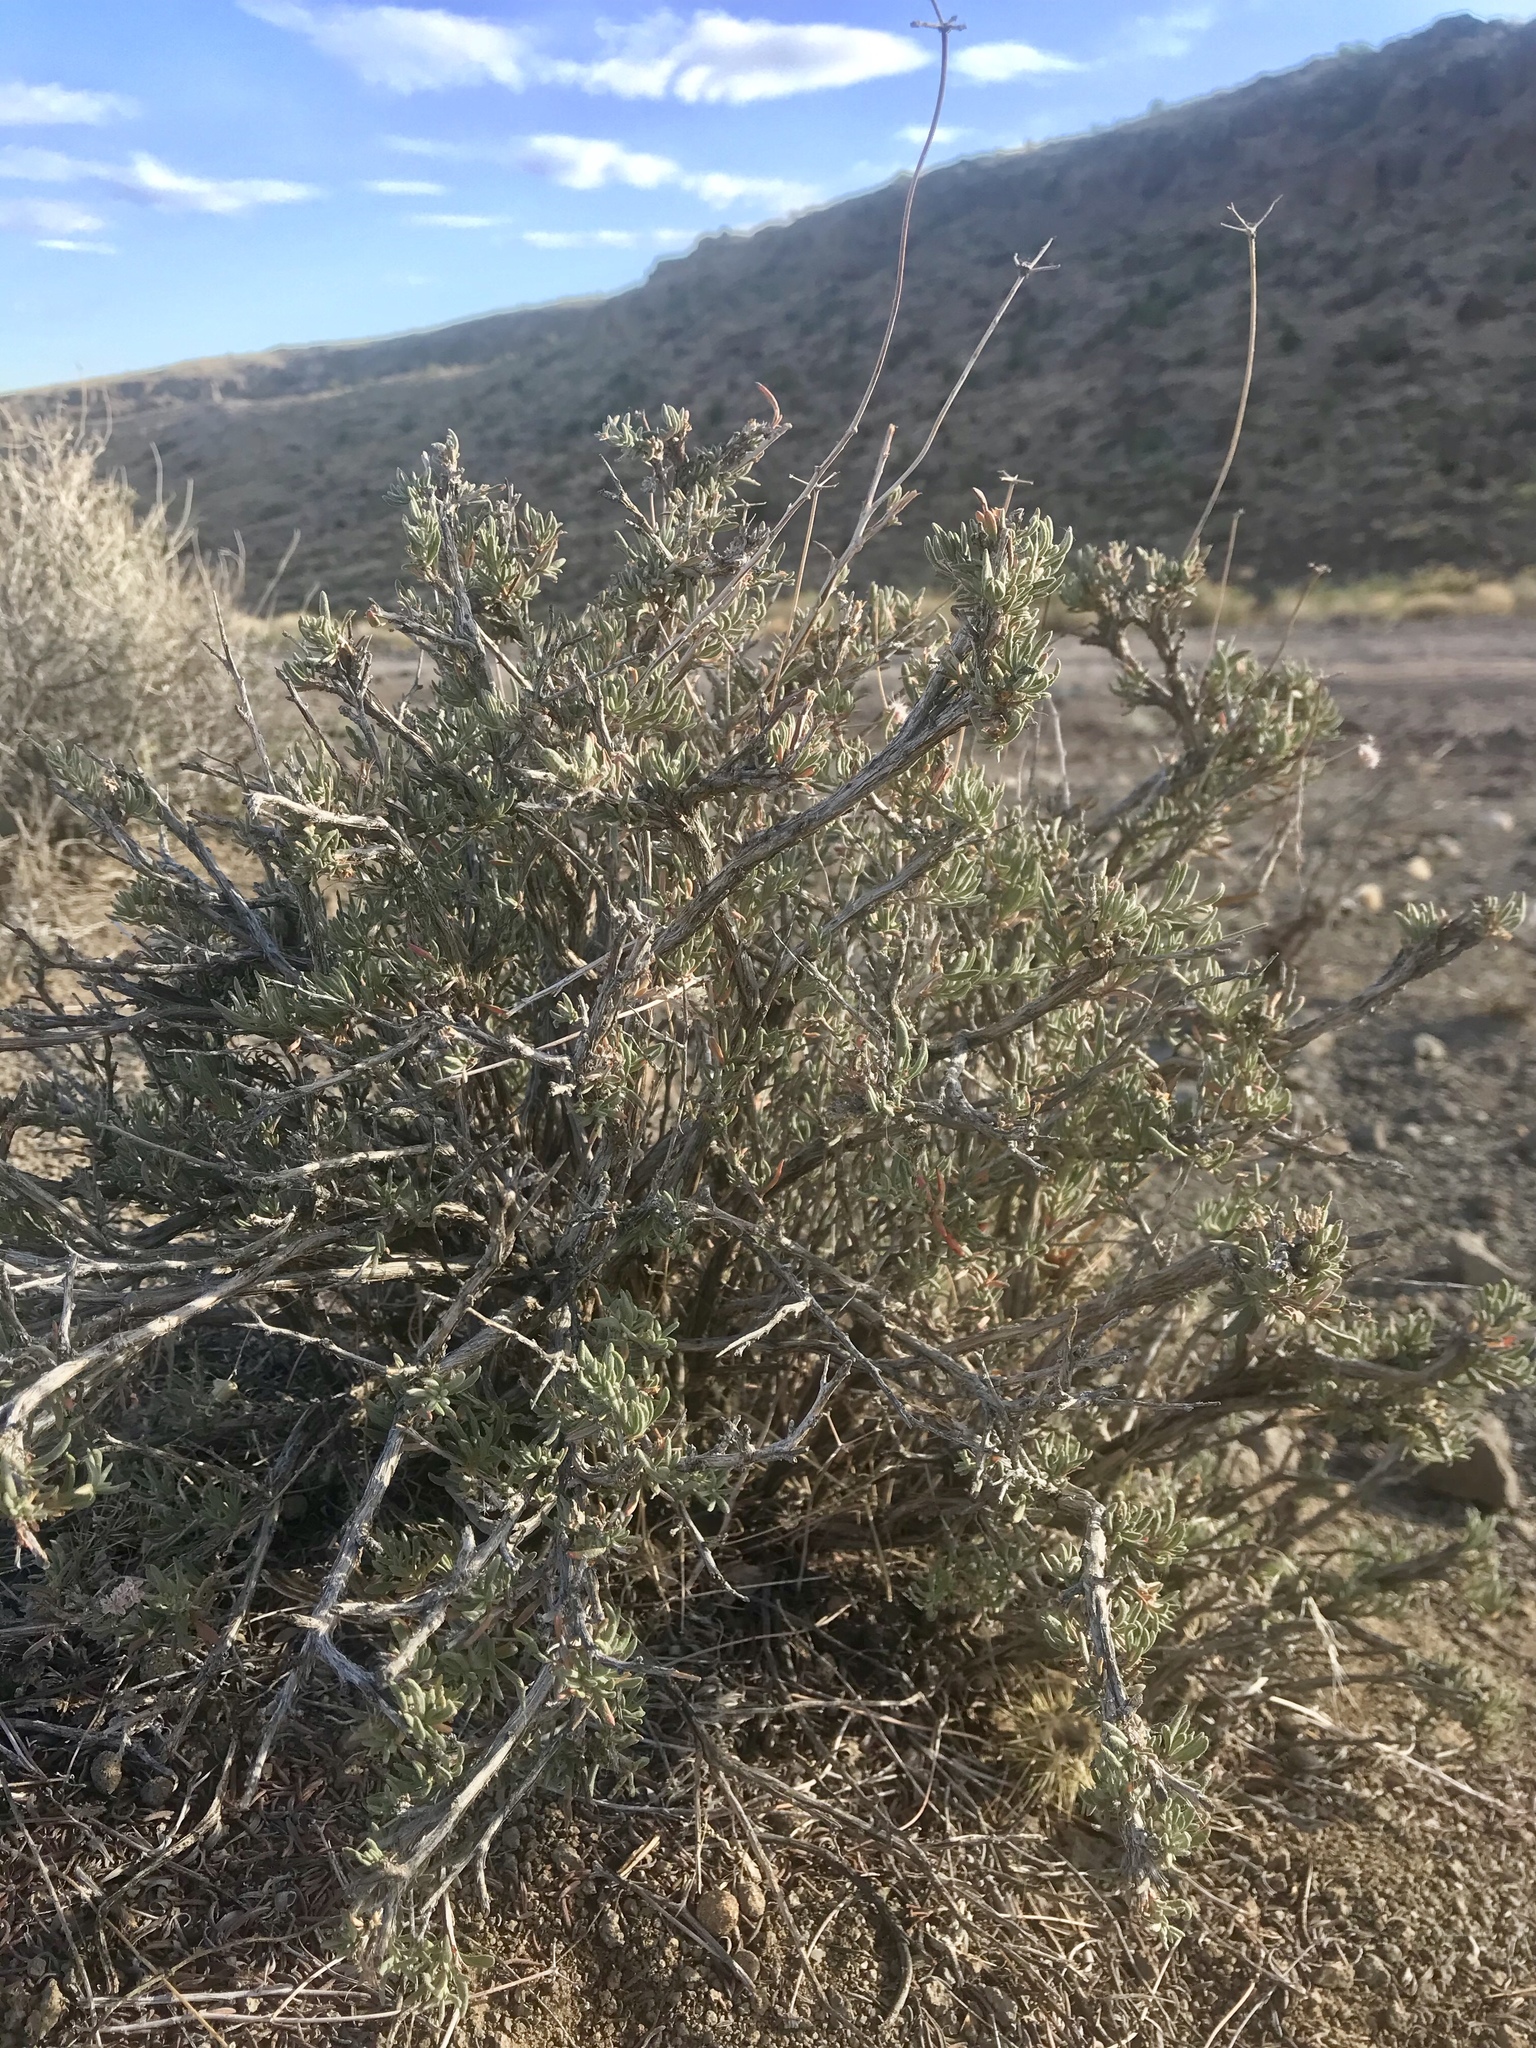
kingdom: Plantae
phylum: Tracheophyta
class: Magnoliopsida
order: Caryophyllales
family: Polygonaceae
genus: Eriogonum
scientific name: Eriogonum fasciculatum
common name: California wild buckwheat
